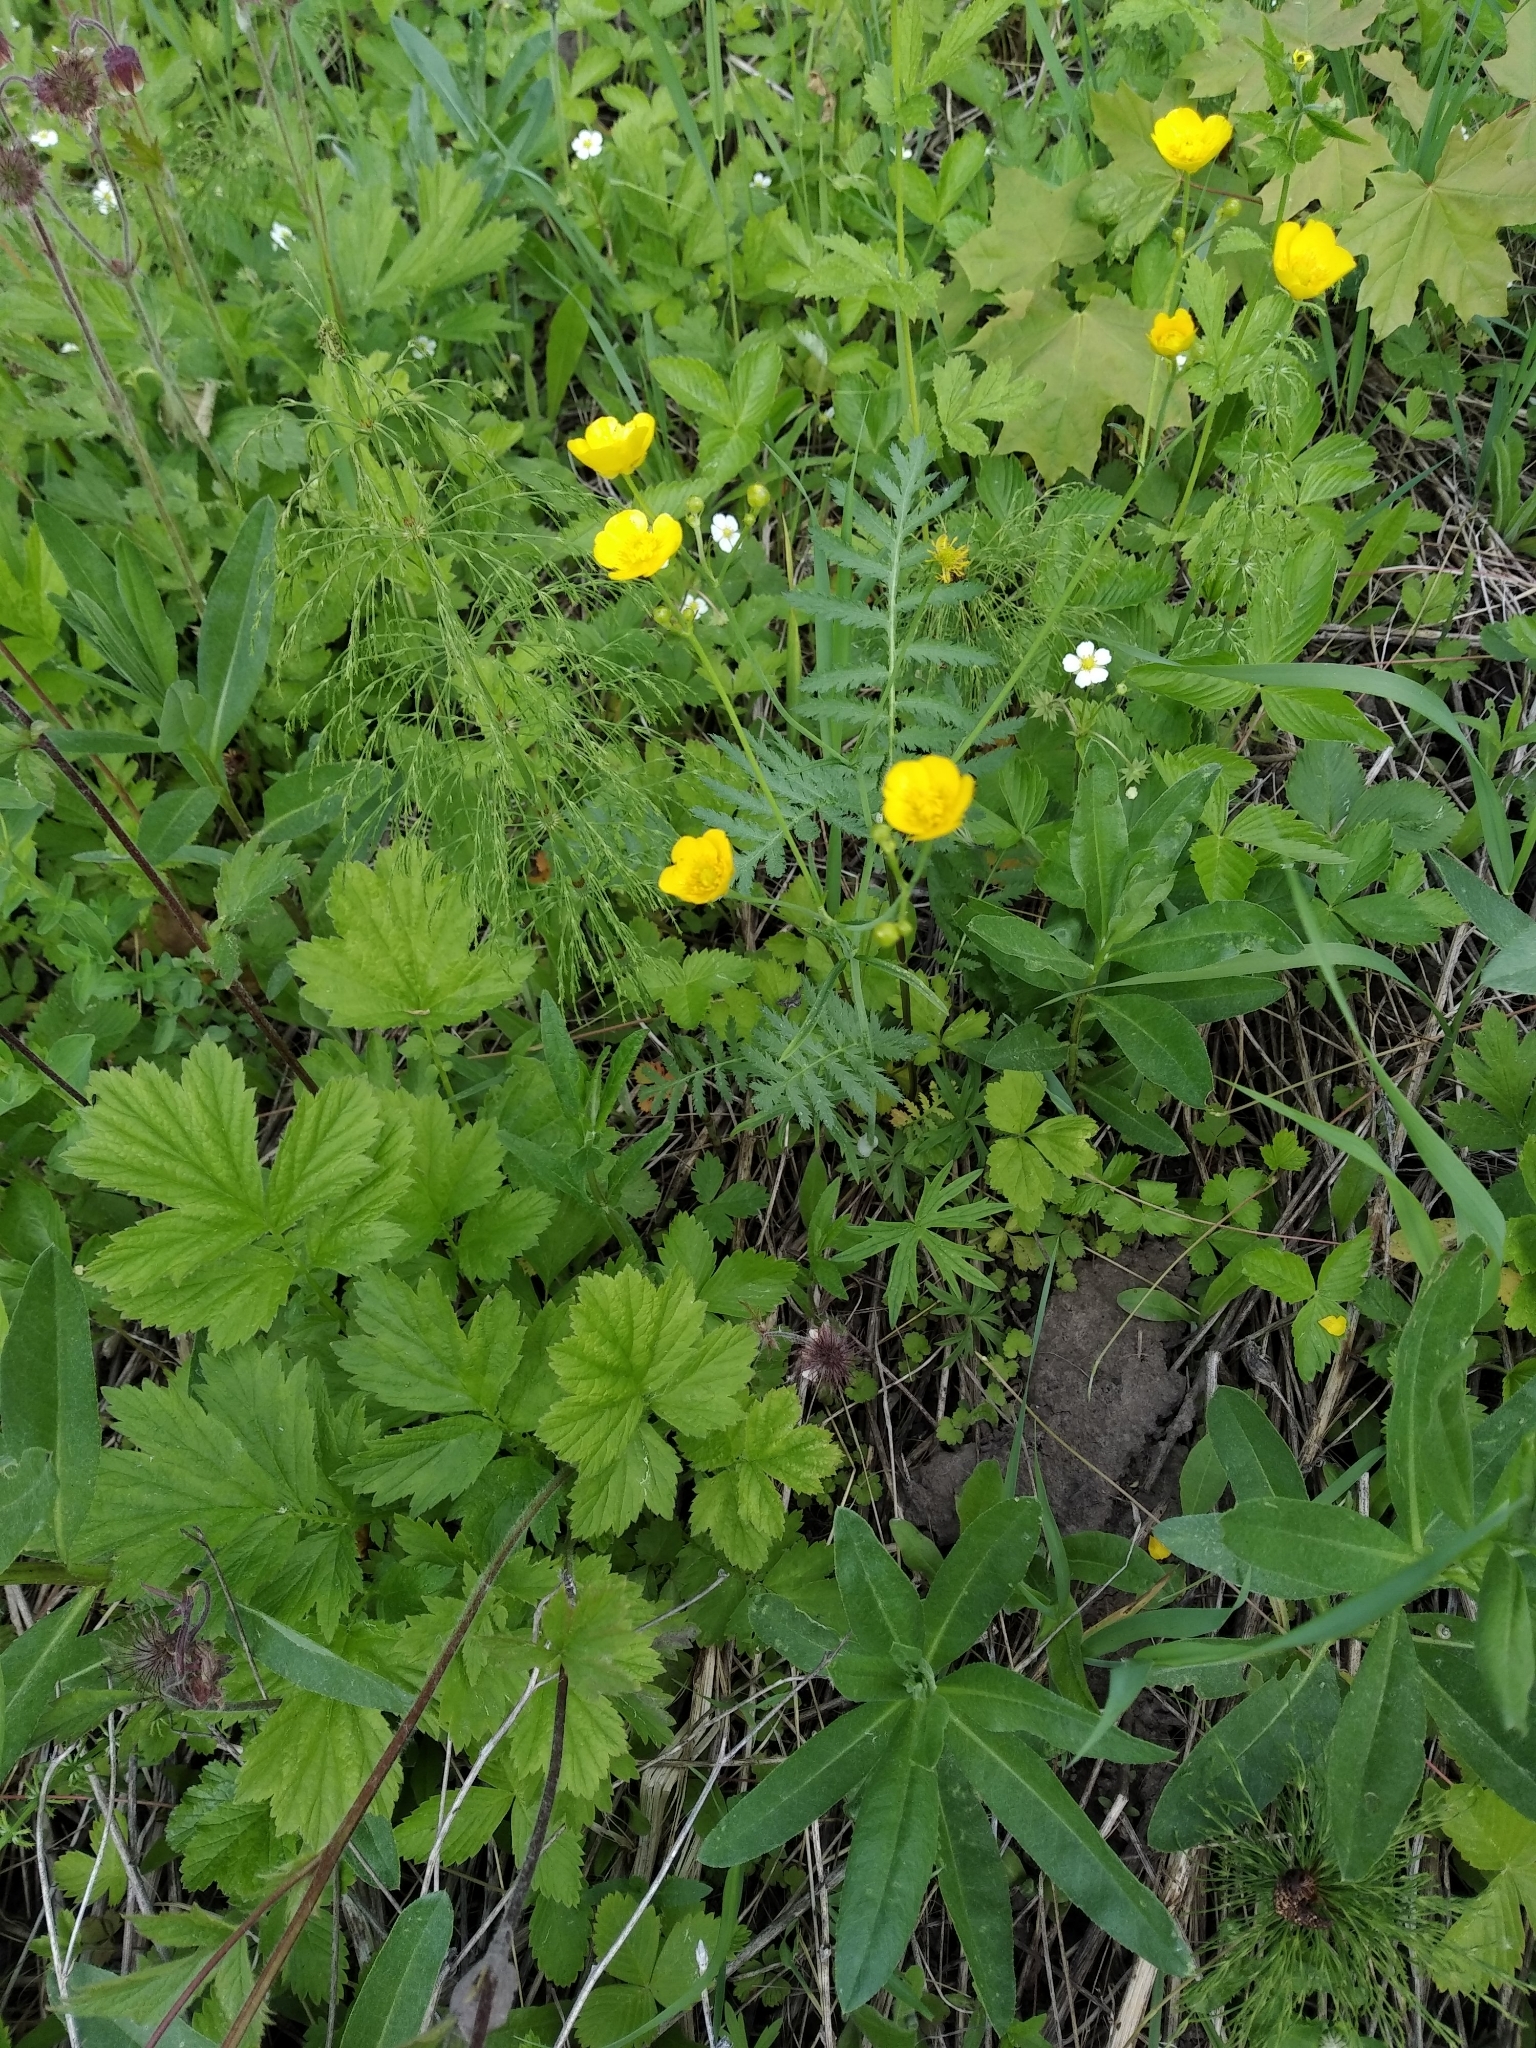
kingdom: Plantae
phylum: Tracheophyta
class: Magnoliopsida
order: Ranunculales
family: Ranunculaceae
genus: Ranunculus
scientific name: Ranunculus acris
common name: Meadow buttercup
